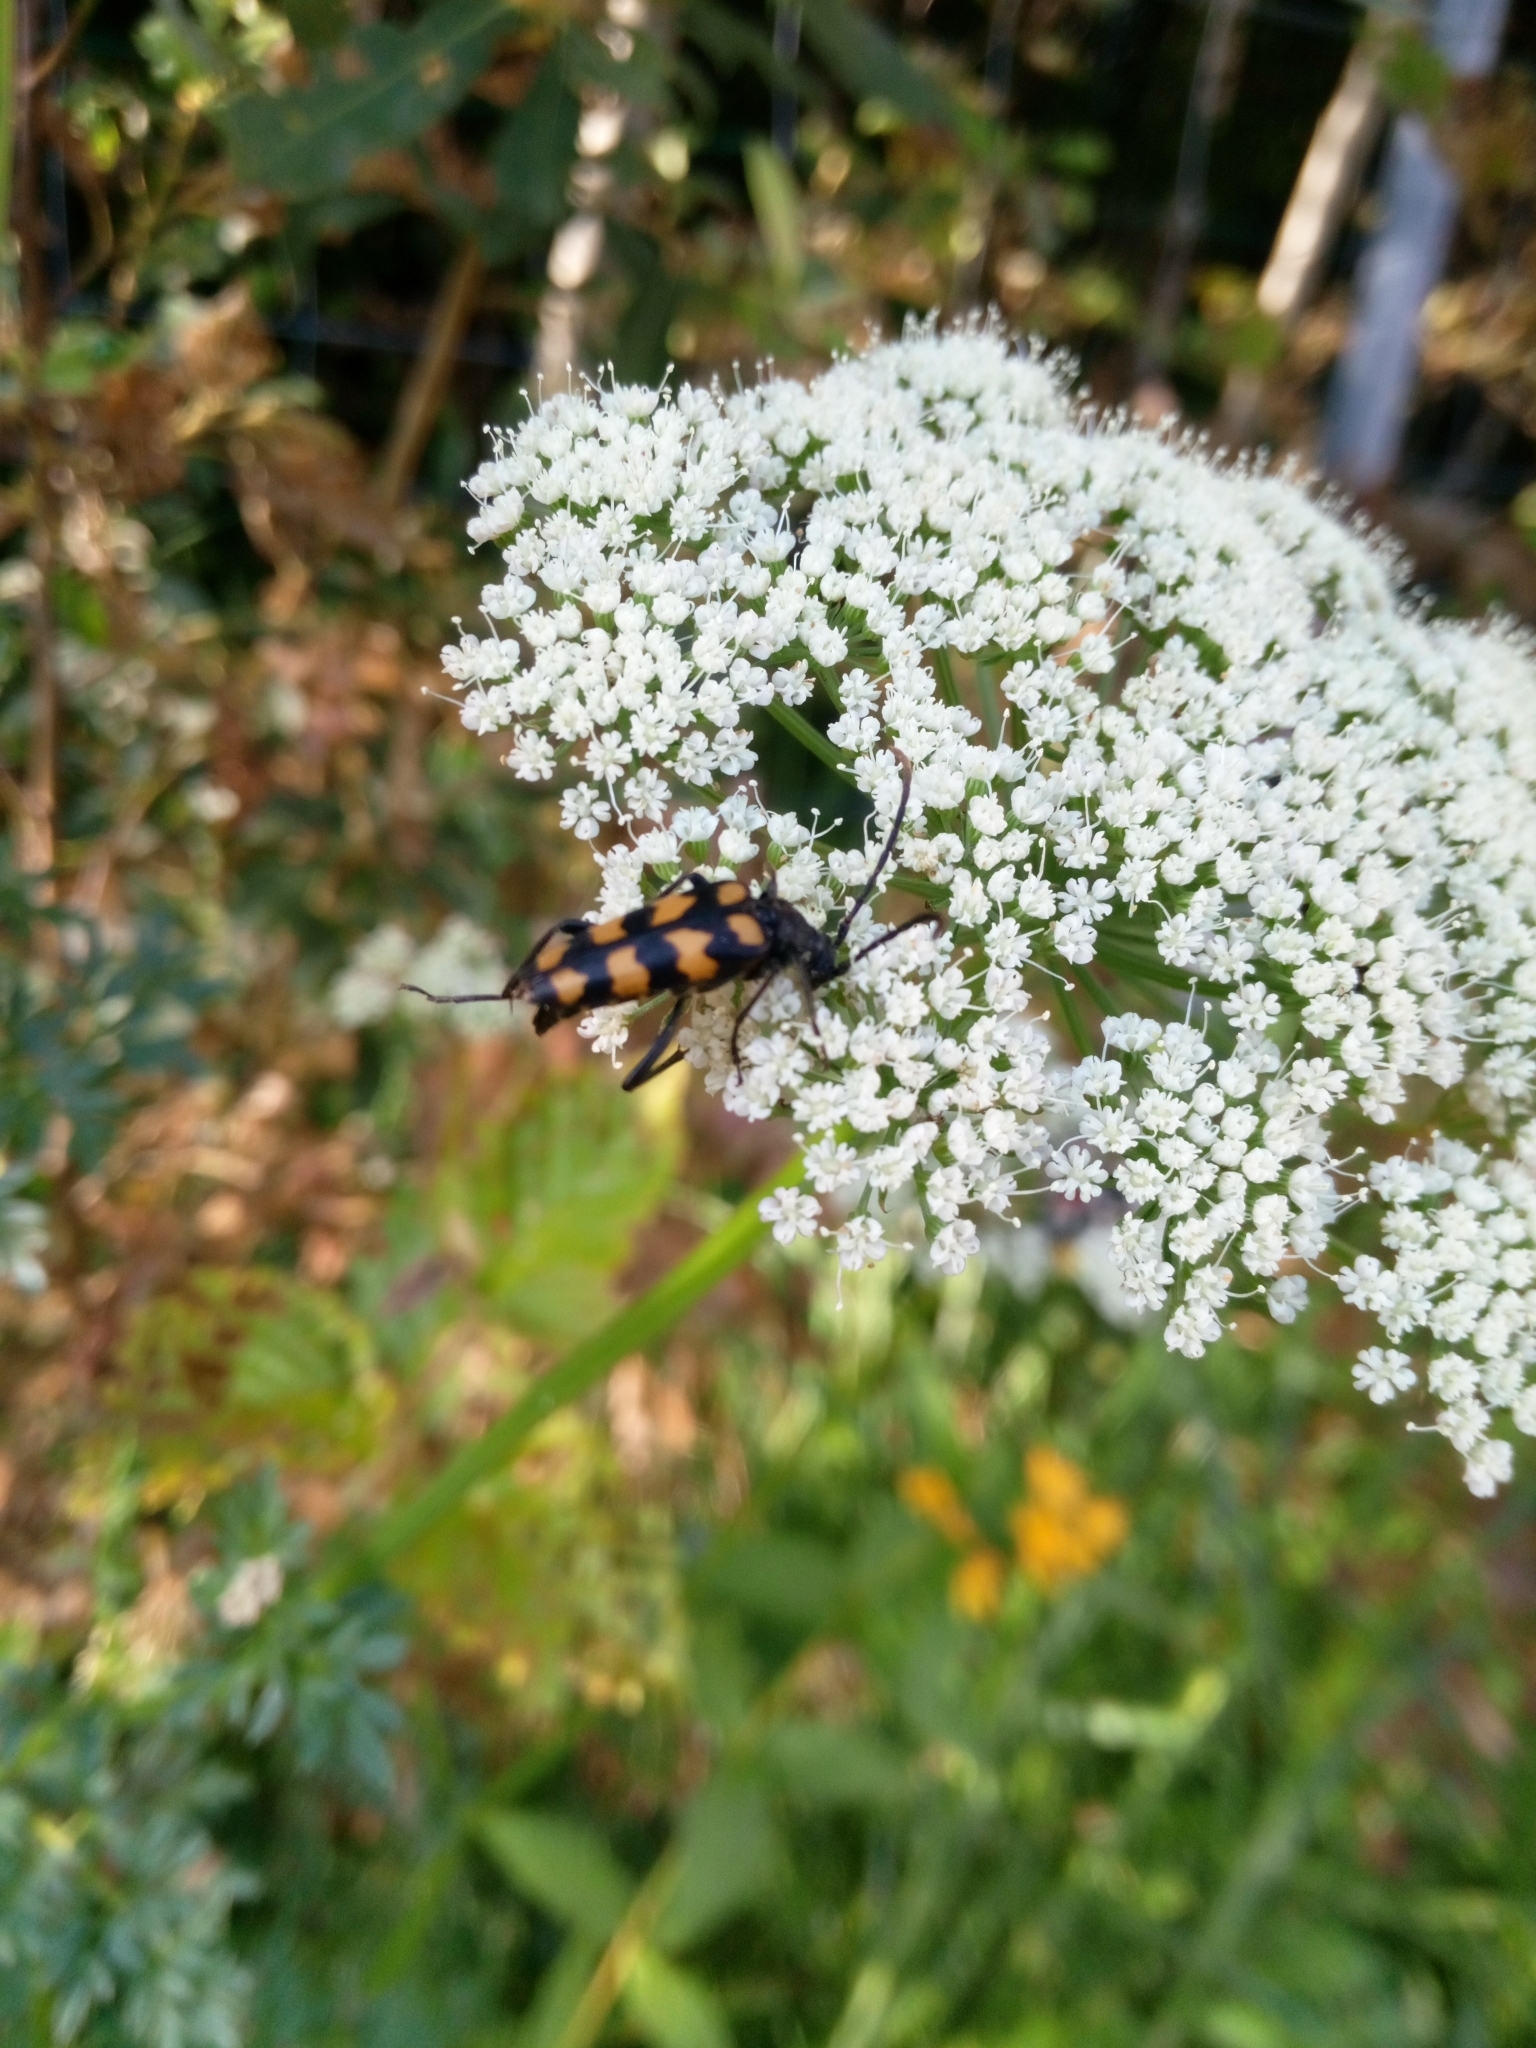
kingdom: Animalia
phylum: Arthropoda
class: Insecta
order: Coleoptera
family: Cerambycidae
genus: Leptura
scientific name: Leptura quadrifasciata
